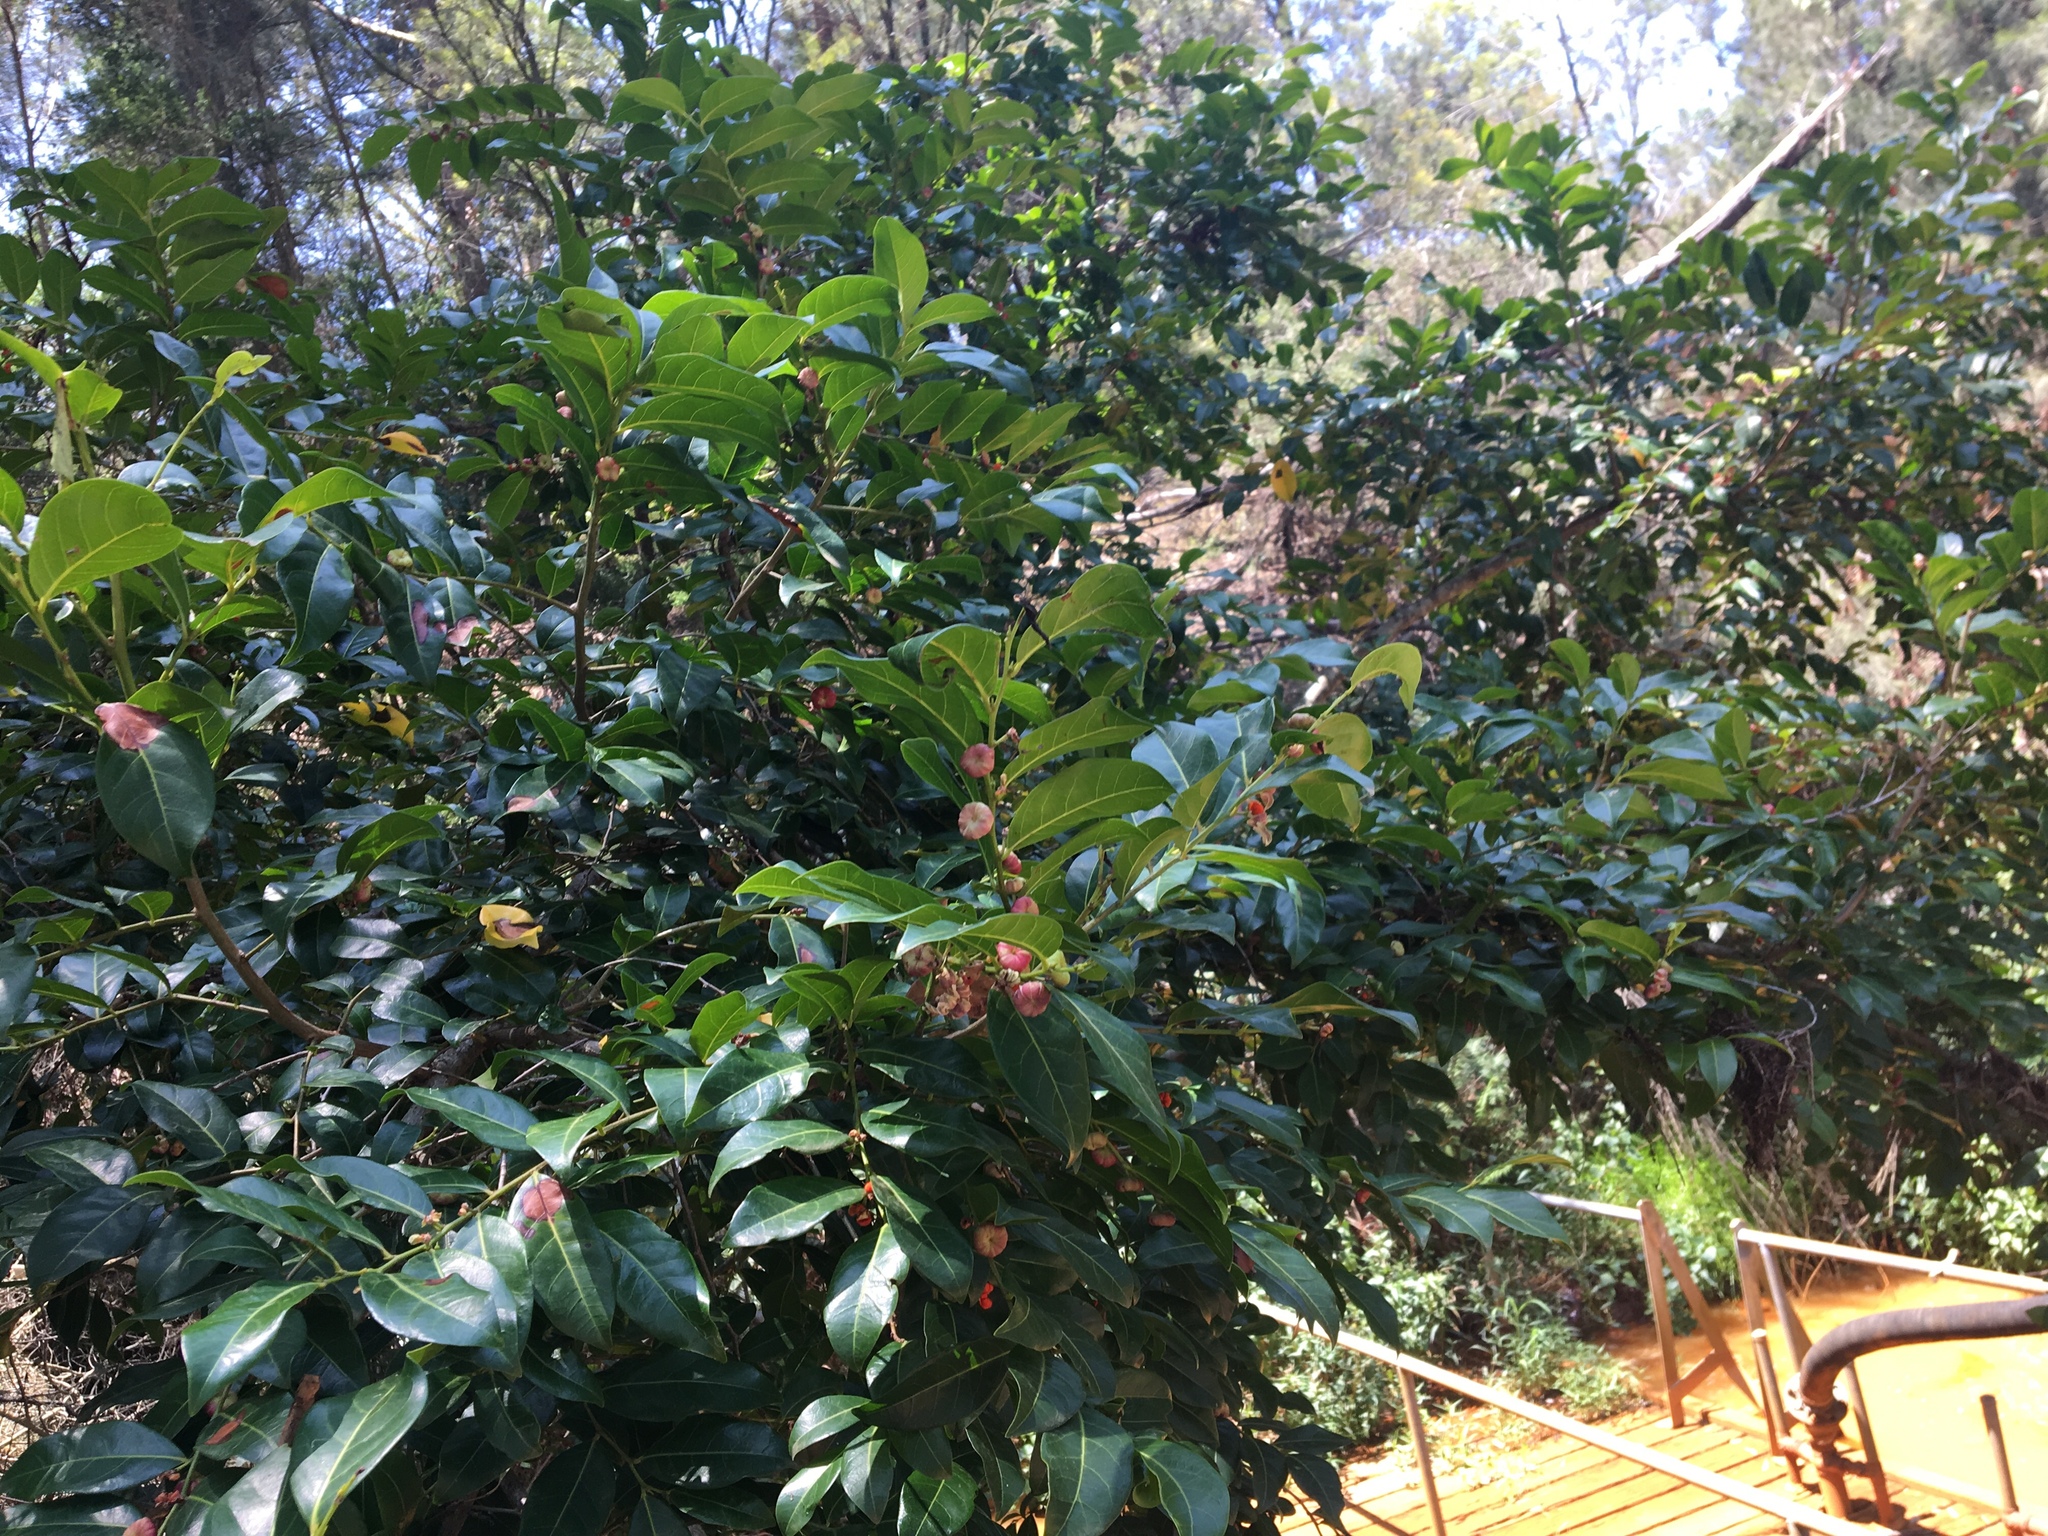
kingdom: Plantae
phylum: Tracheophyta
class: Magnoliopsida
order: Malpighiales
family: Phyllanthaceae
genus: Glochidion
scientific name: Glochidion ferdinandi
